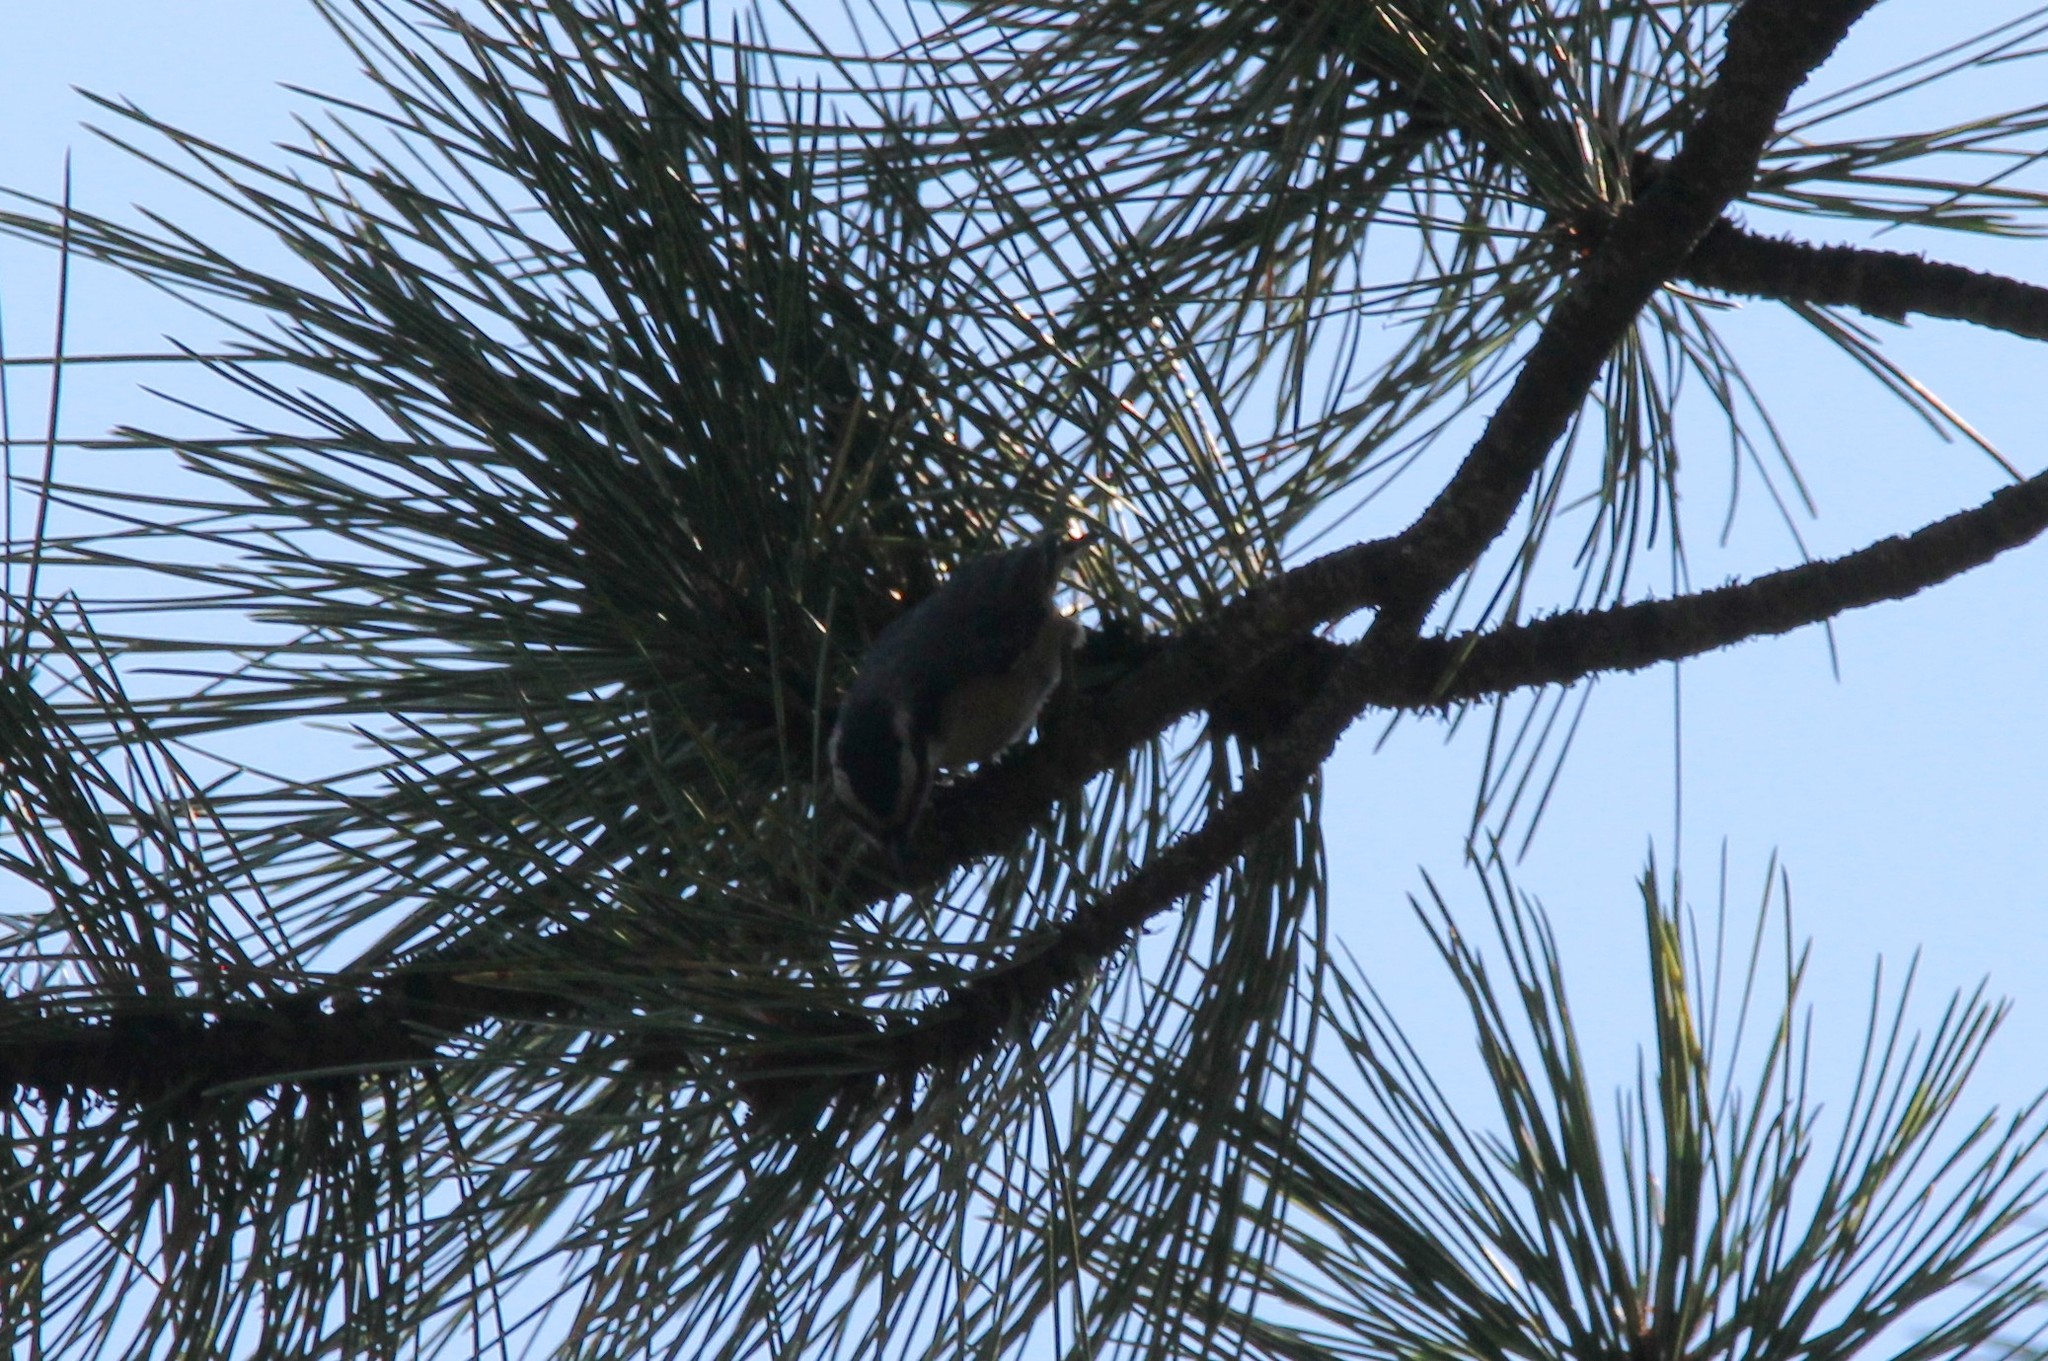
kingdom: Animalia
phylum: Chordata
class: Aves
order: Passeriformes
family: Sittidae
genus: Sitta
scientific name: Sitta canadensis
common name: Red-breasted nuthatch
